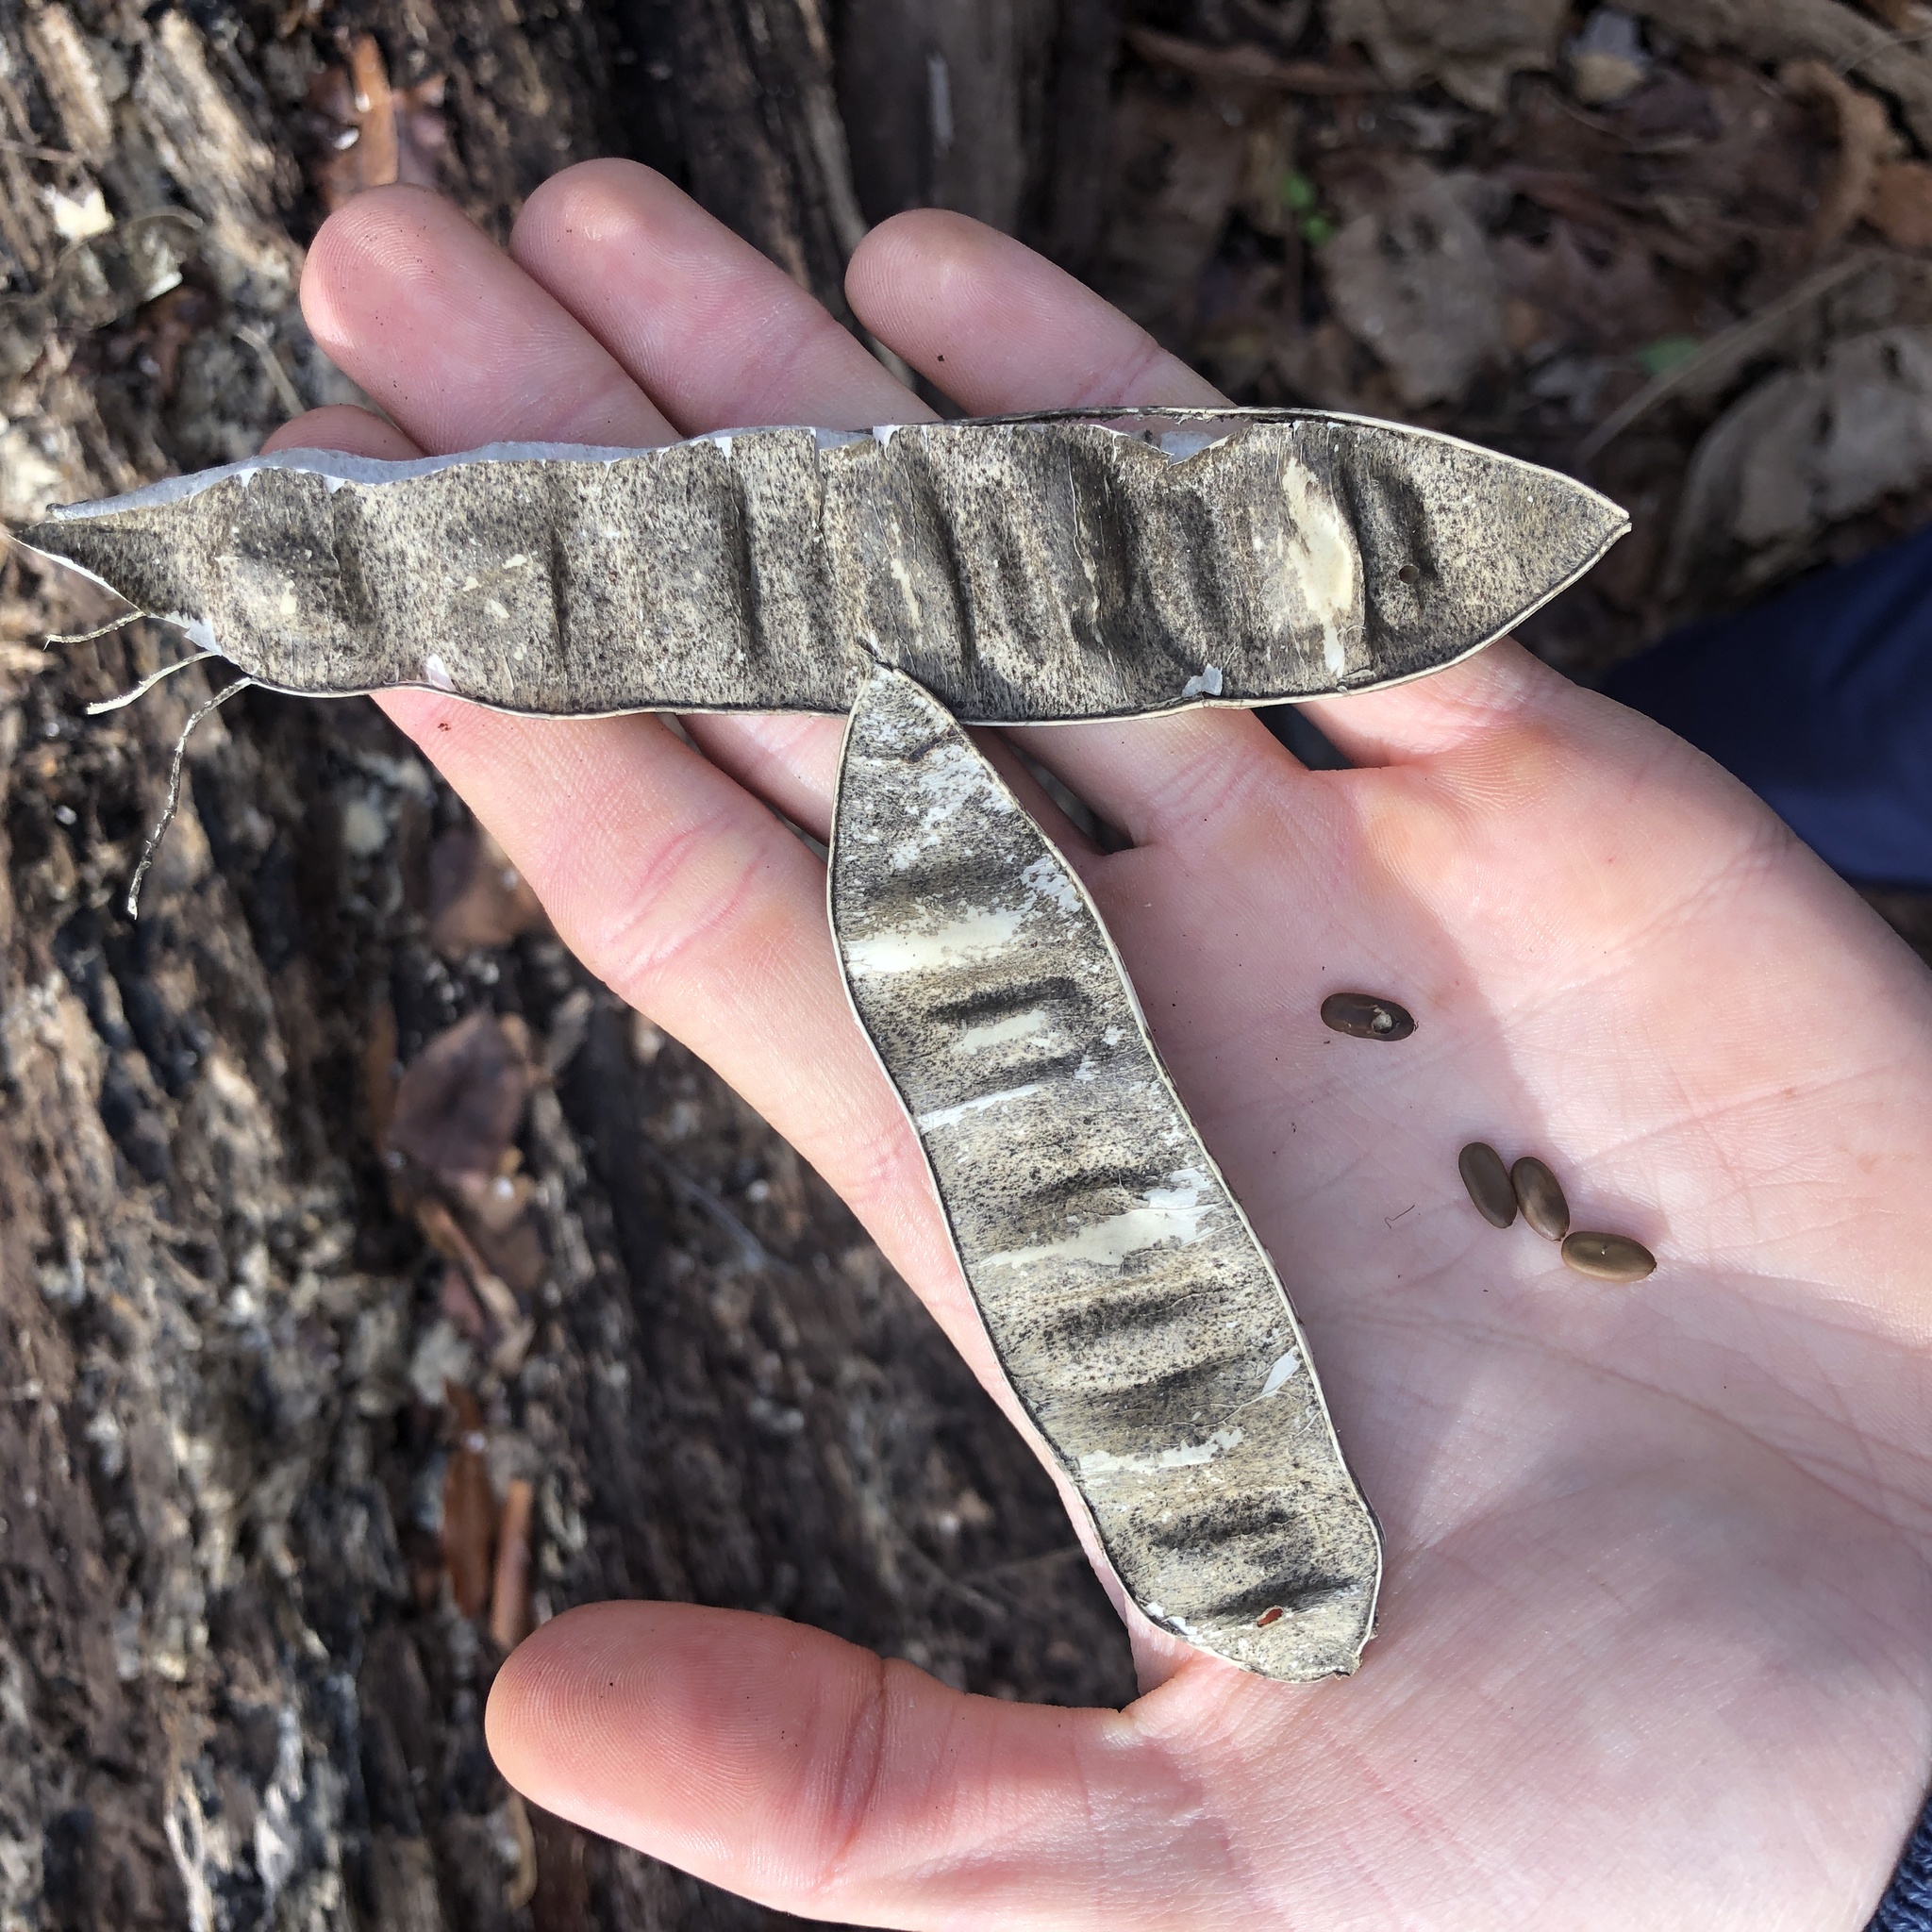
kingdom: Plantae
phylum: Tracheophyta
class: Magnoliopsida
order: Fabales
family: Fabaceae
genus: Albizia
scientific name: Albizia julibrissin
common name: Silktree
